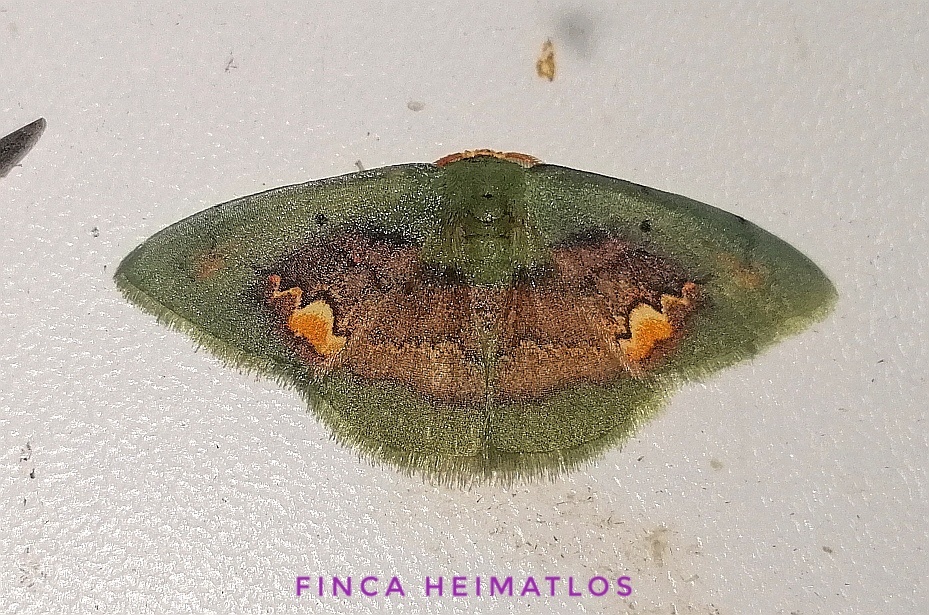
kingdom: Animalia
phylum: Arthropoda
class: Insecta
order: Lepidoptera
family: Geometridae
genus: Pyrochlora
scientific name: Pyrochlora rhanis
